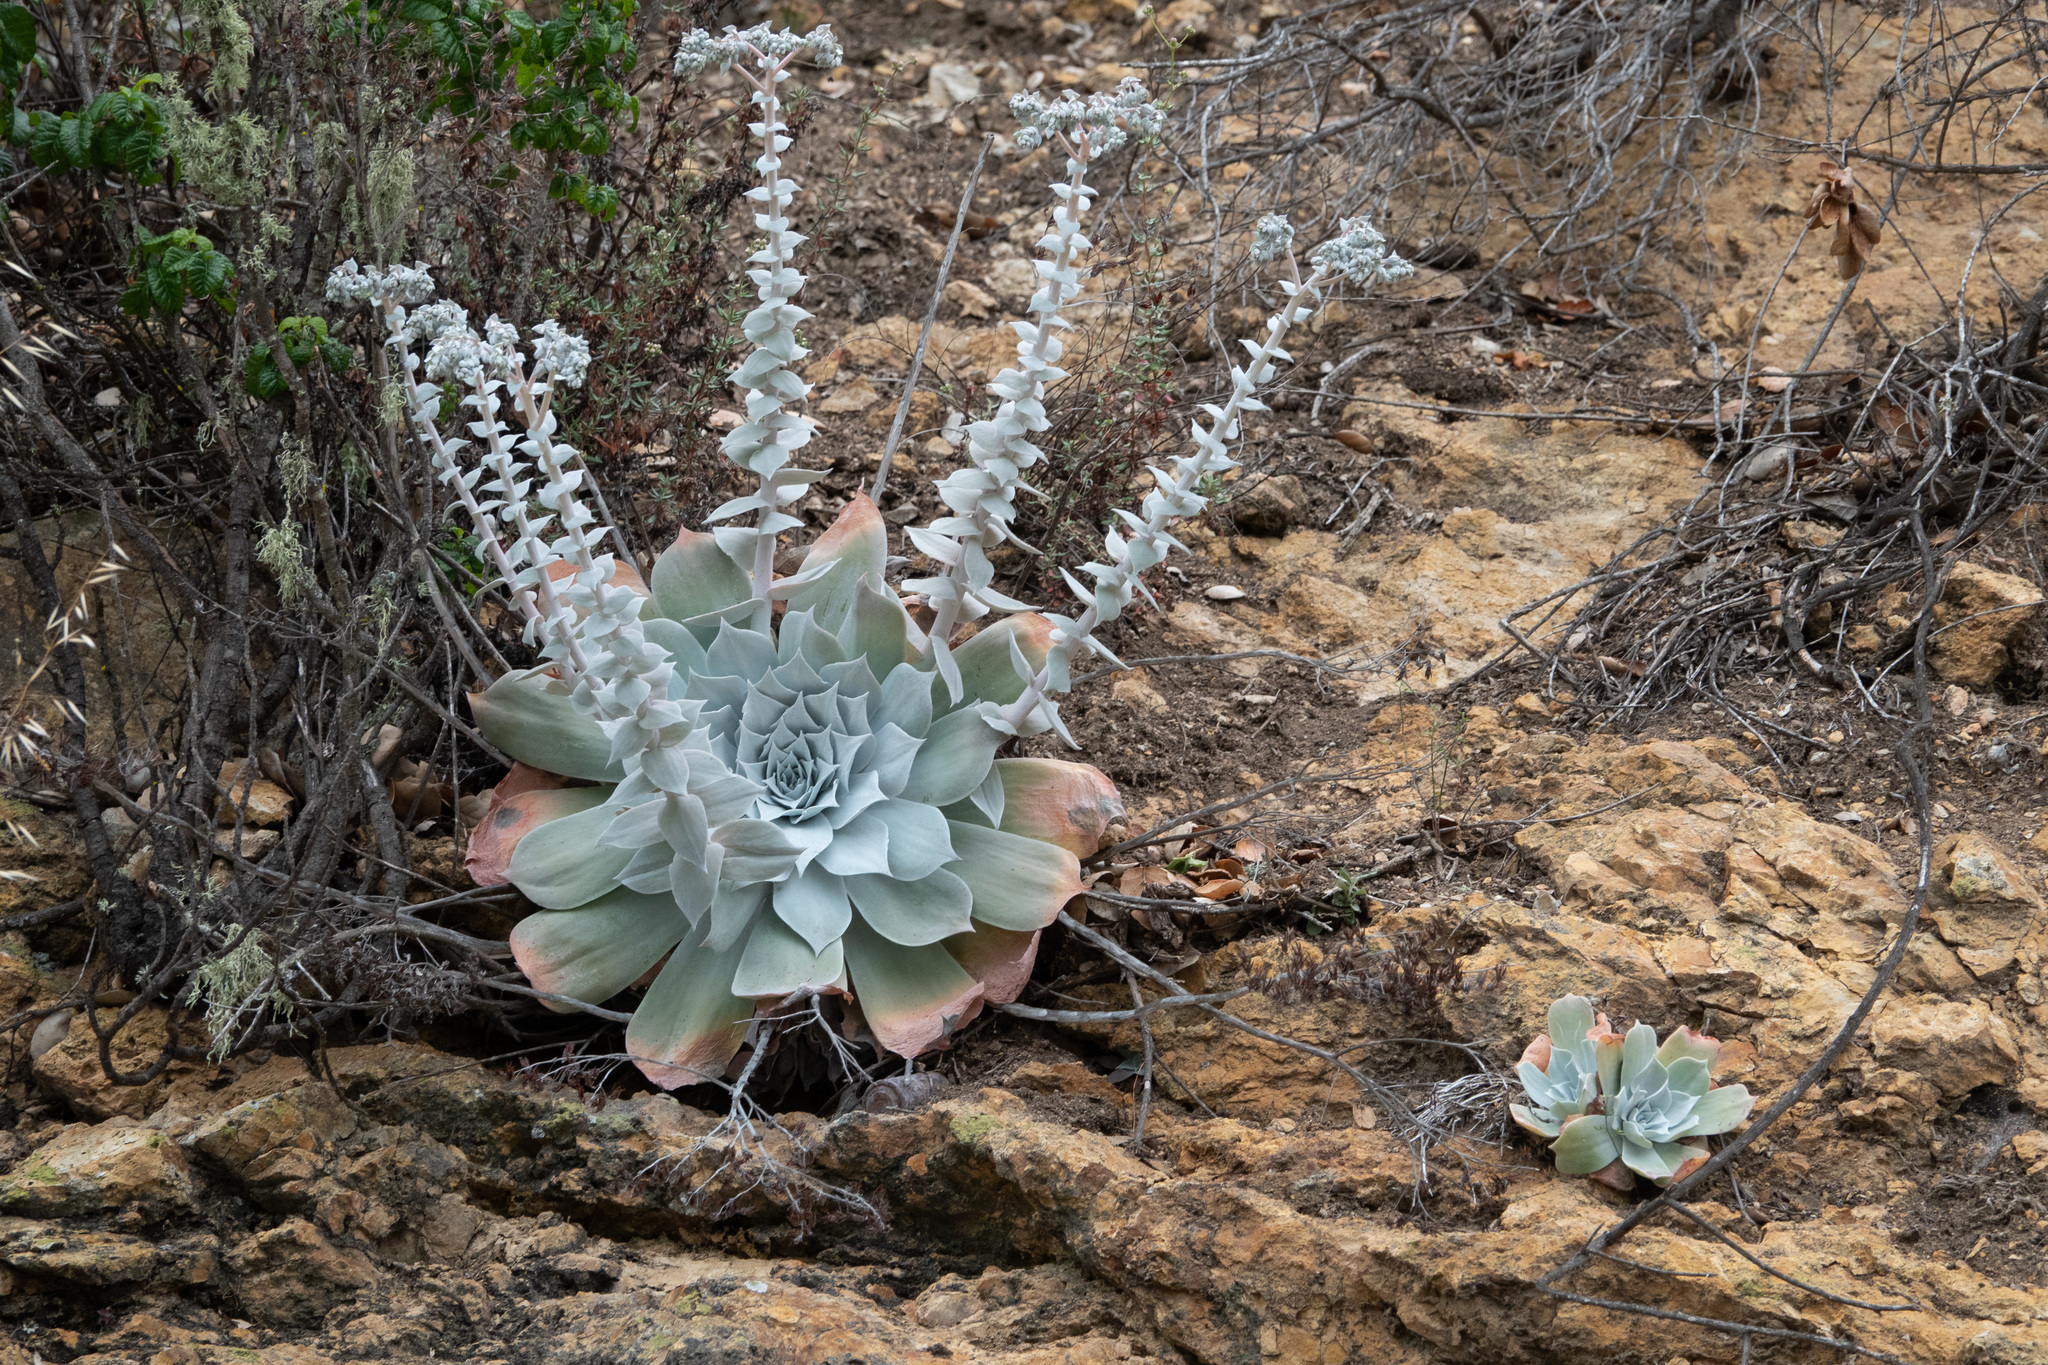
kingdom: Plantae
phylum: Tracheophyta
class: Magnoliopsida
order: Saxifragales
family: Crassulaceae
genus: Dudleya
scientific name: Dudleya pulverulenta
